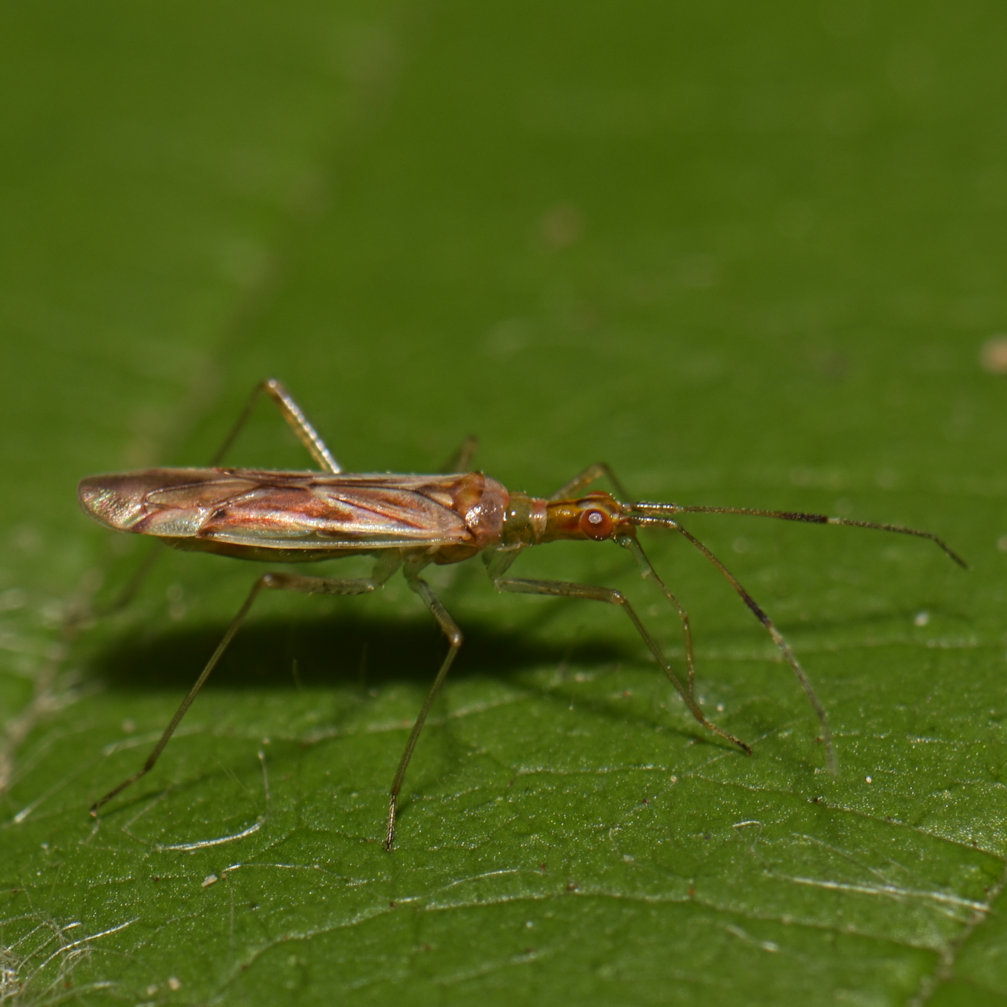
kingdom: Animalia
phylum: Arthropoda
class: Insecta
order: Hemiptera
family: Miridae
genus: Dicyphus
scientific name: Dicyphus famelicus
